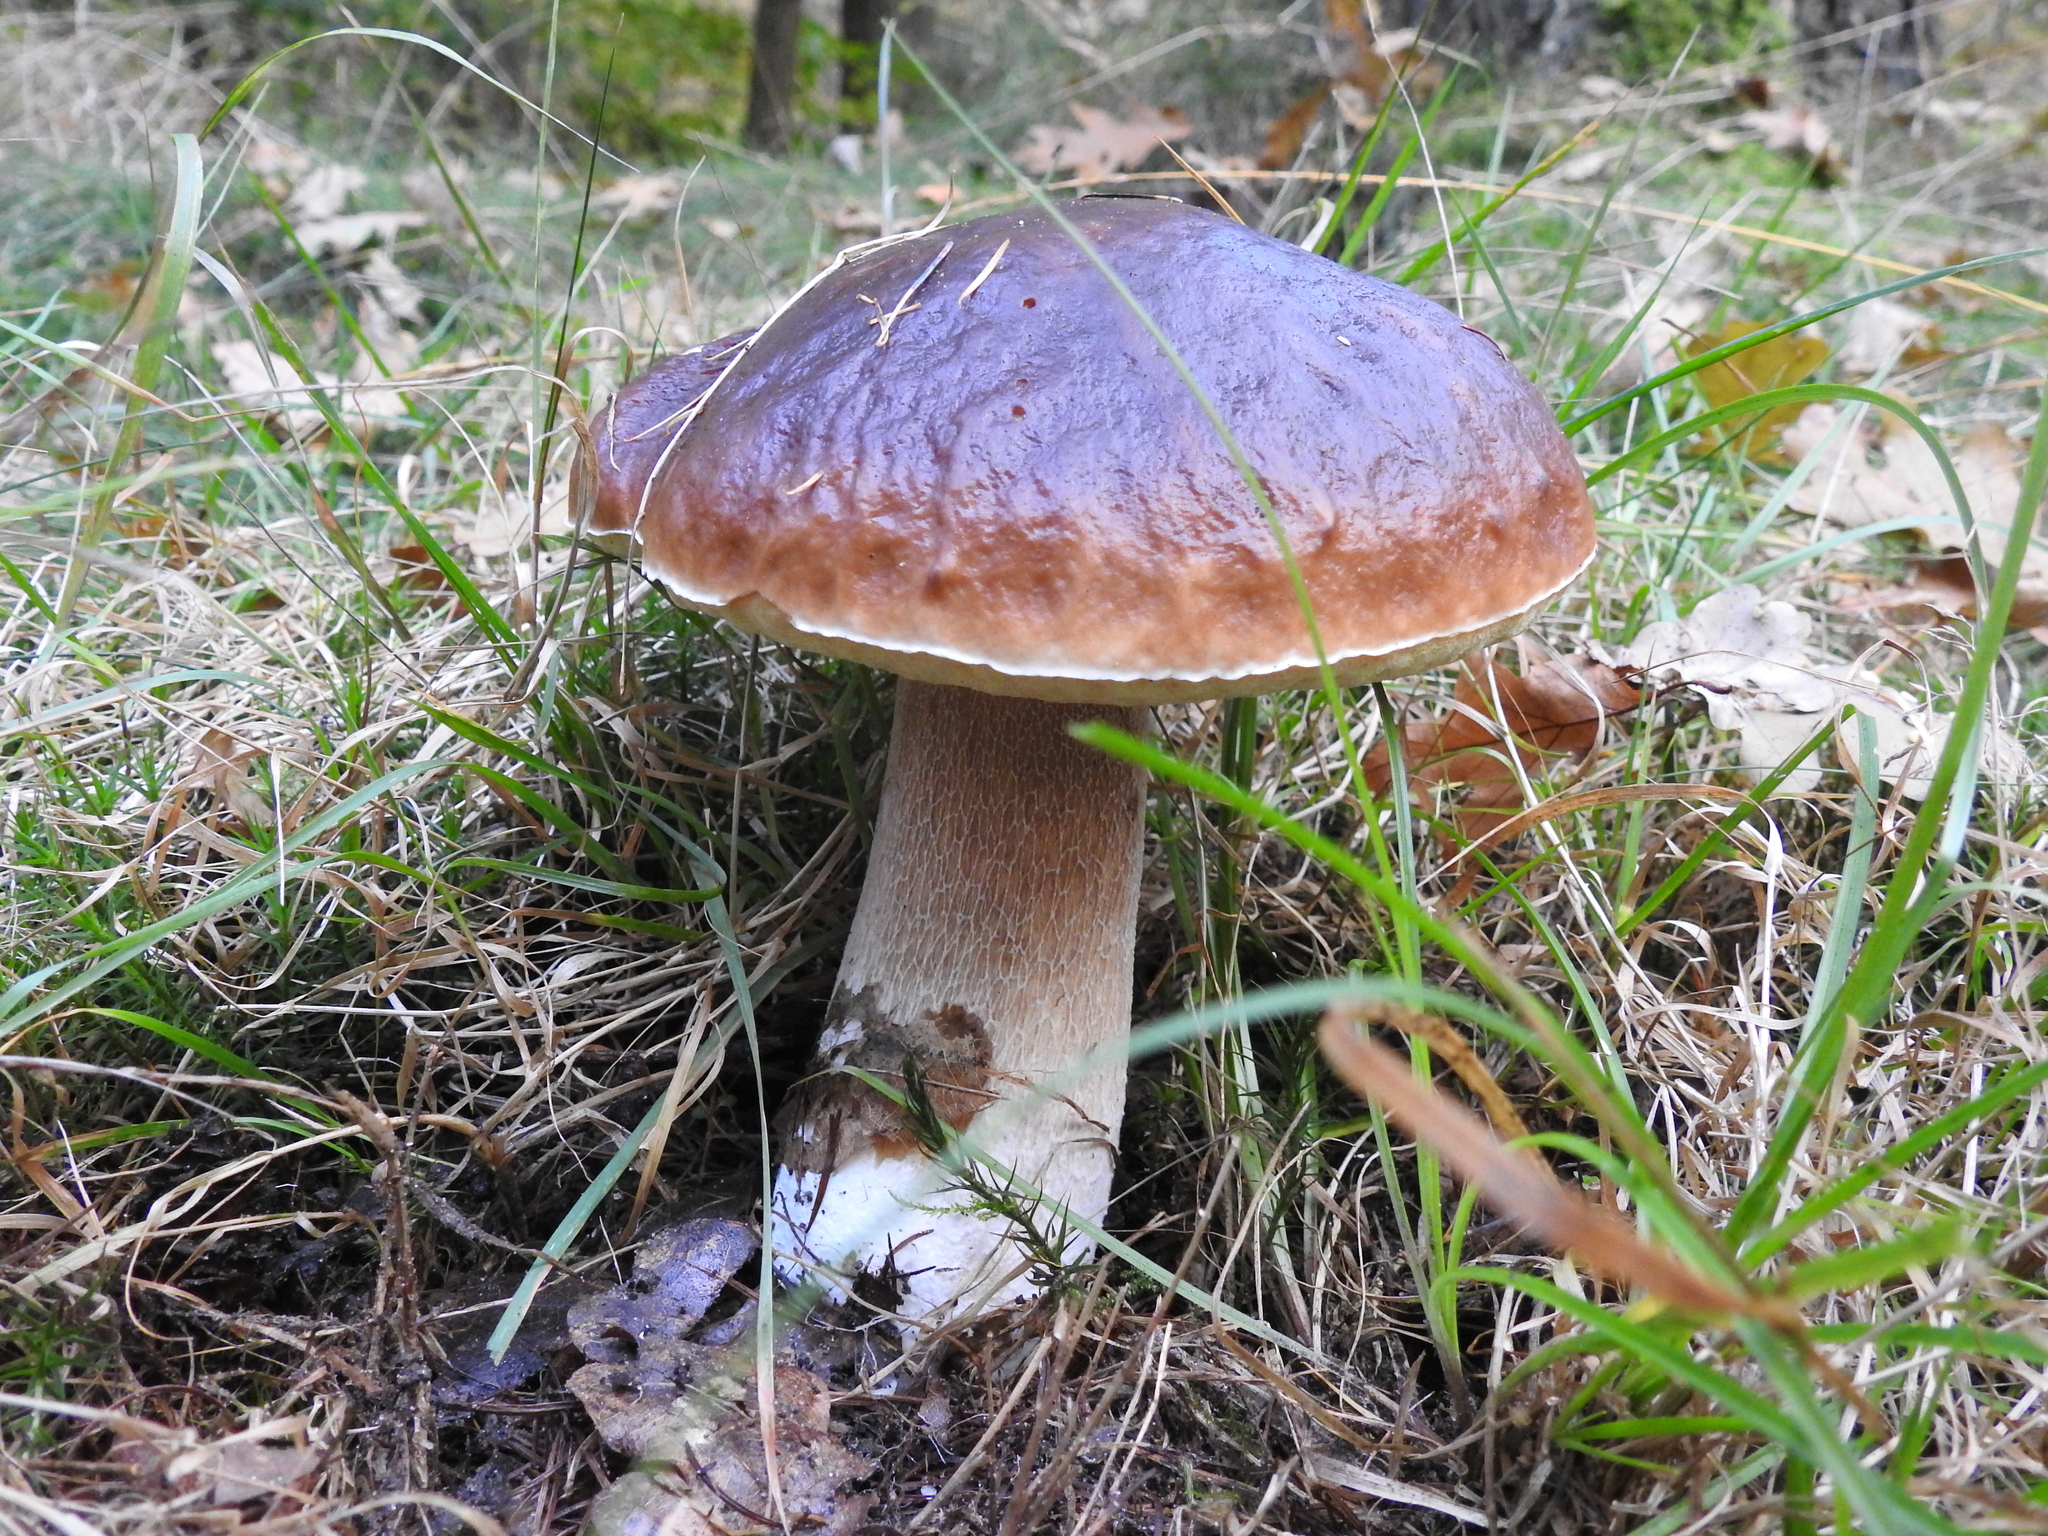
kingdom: Fungi
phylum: Basidiomycota
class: Agaricomycetes
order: Boletales
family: Boletaceae
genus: Boletus
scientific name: Boletus edulis
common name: Cep
